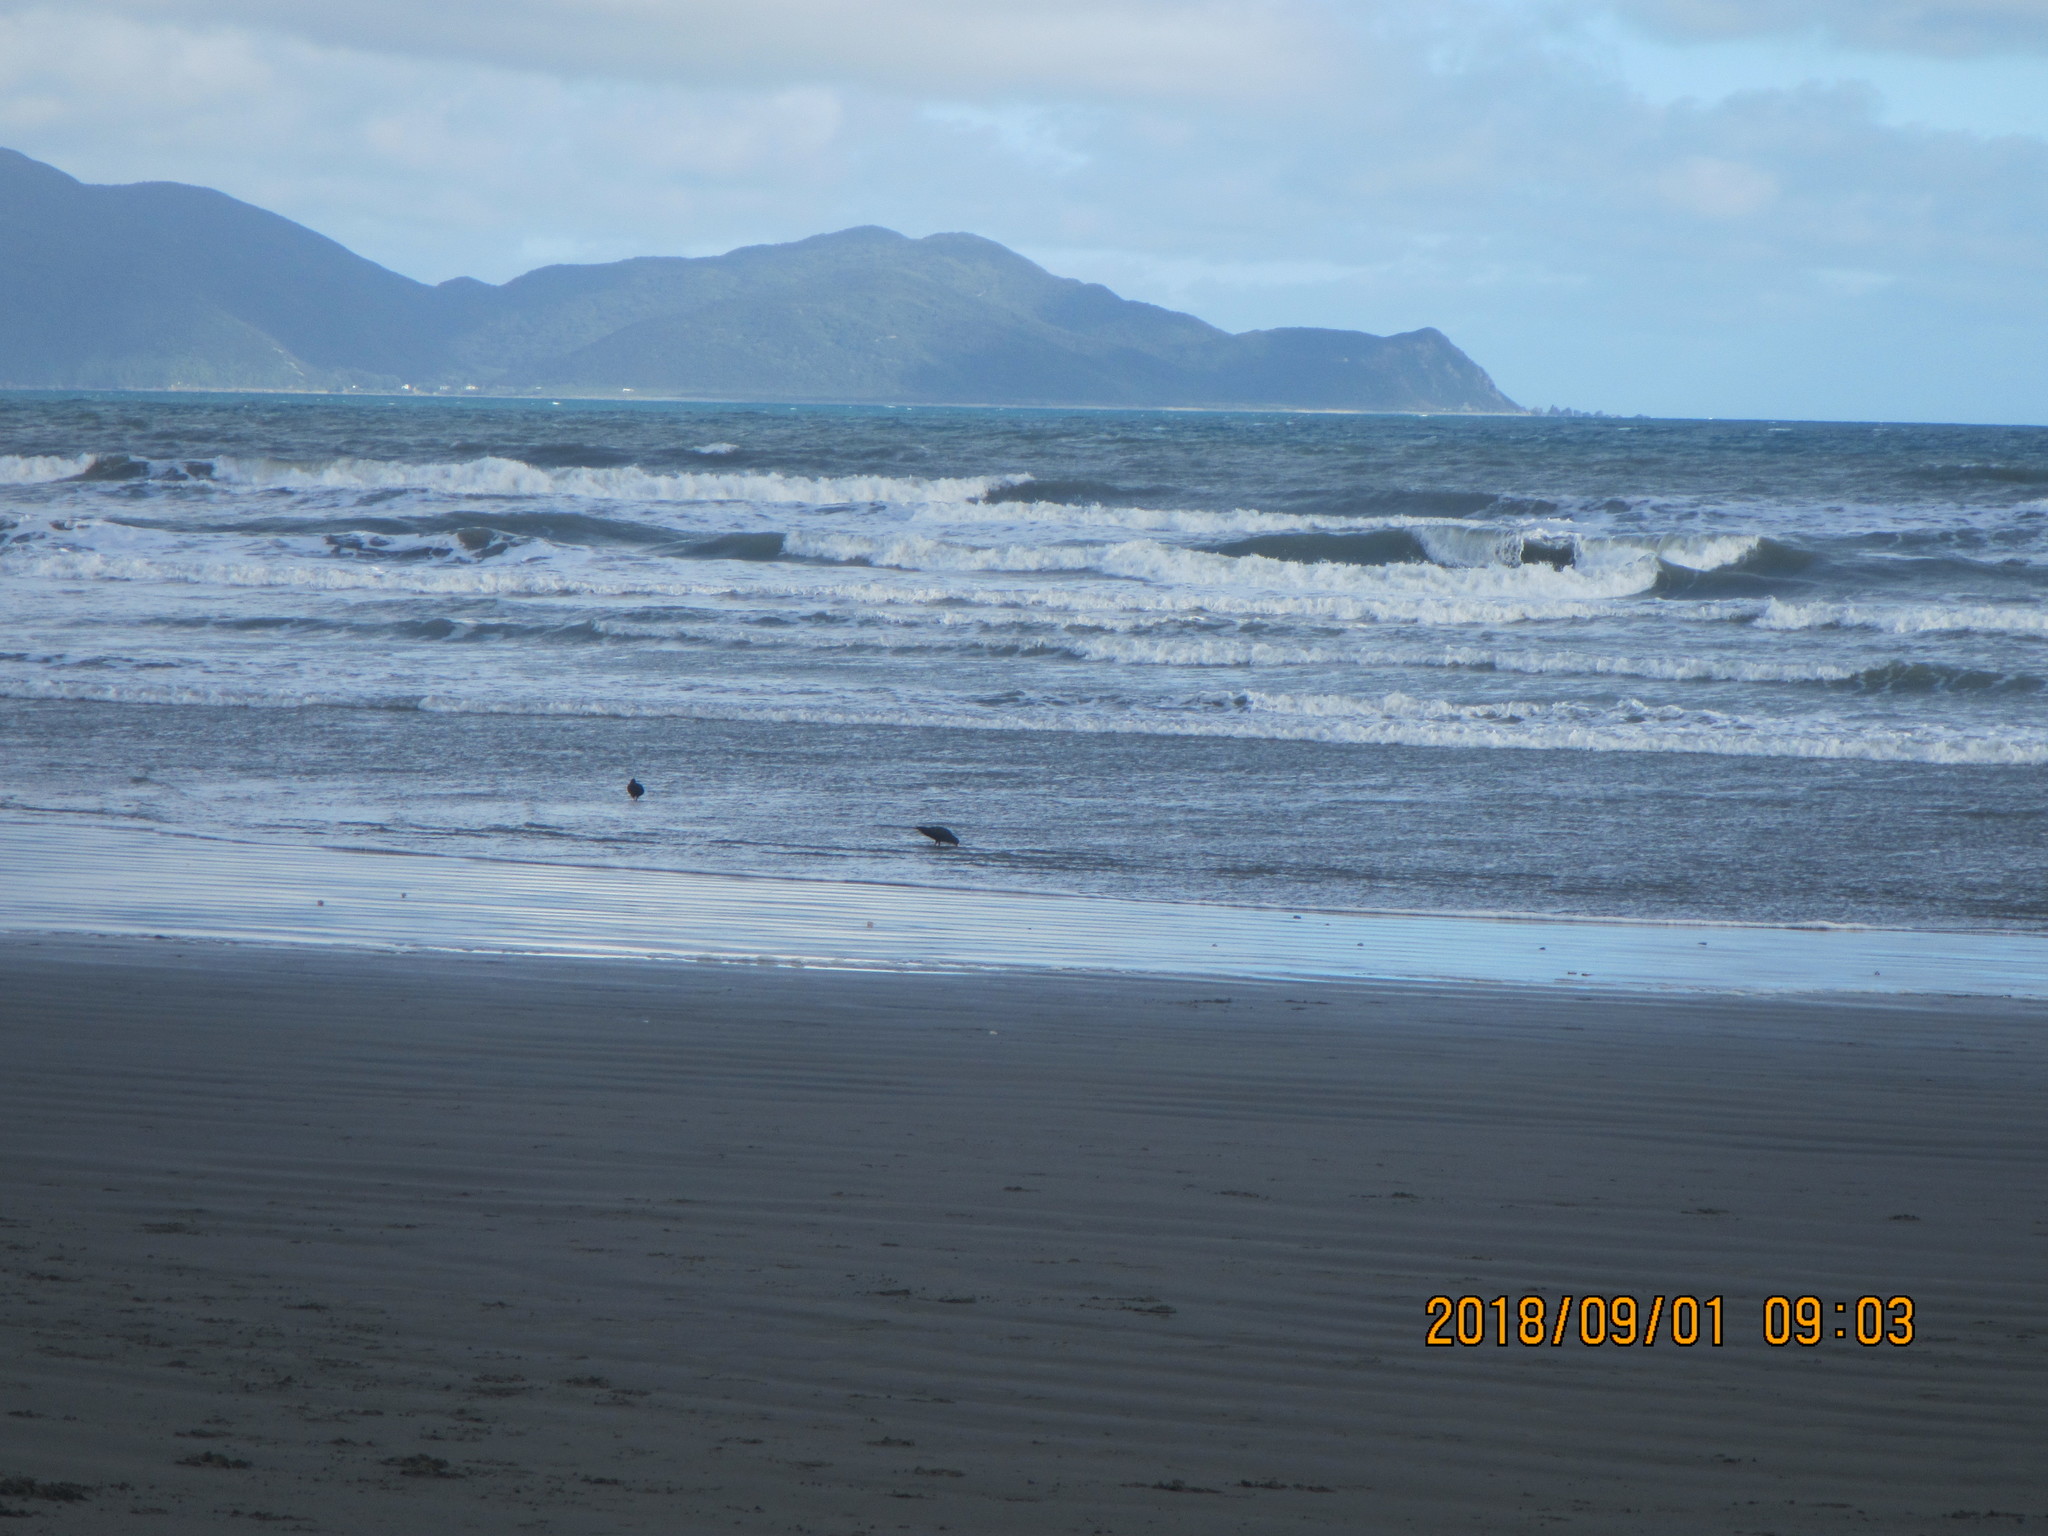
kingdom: Animalia
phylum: Chordata
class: Aves
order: Charadriiformes
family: Haematopodidae
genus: Haematopus
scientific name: Haematopus unicolor
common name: Variable oystercatcher
